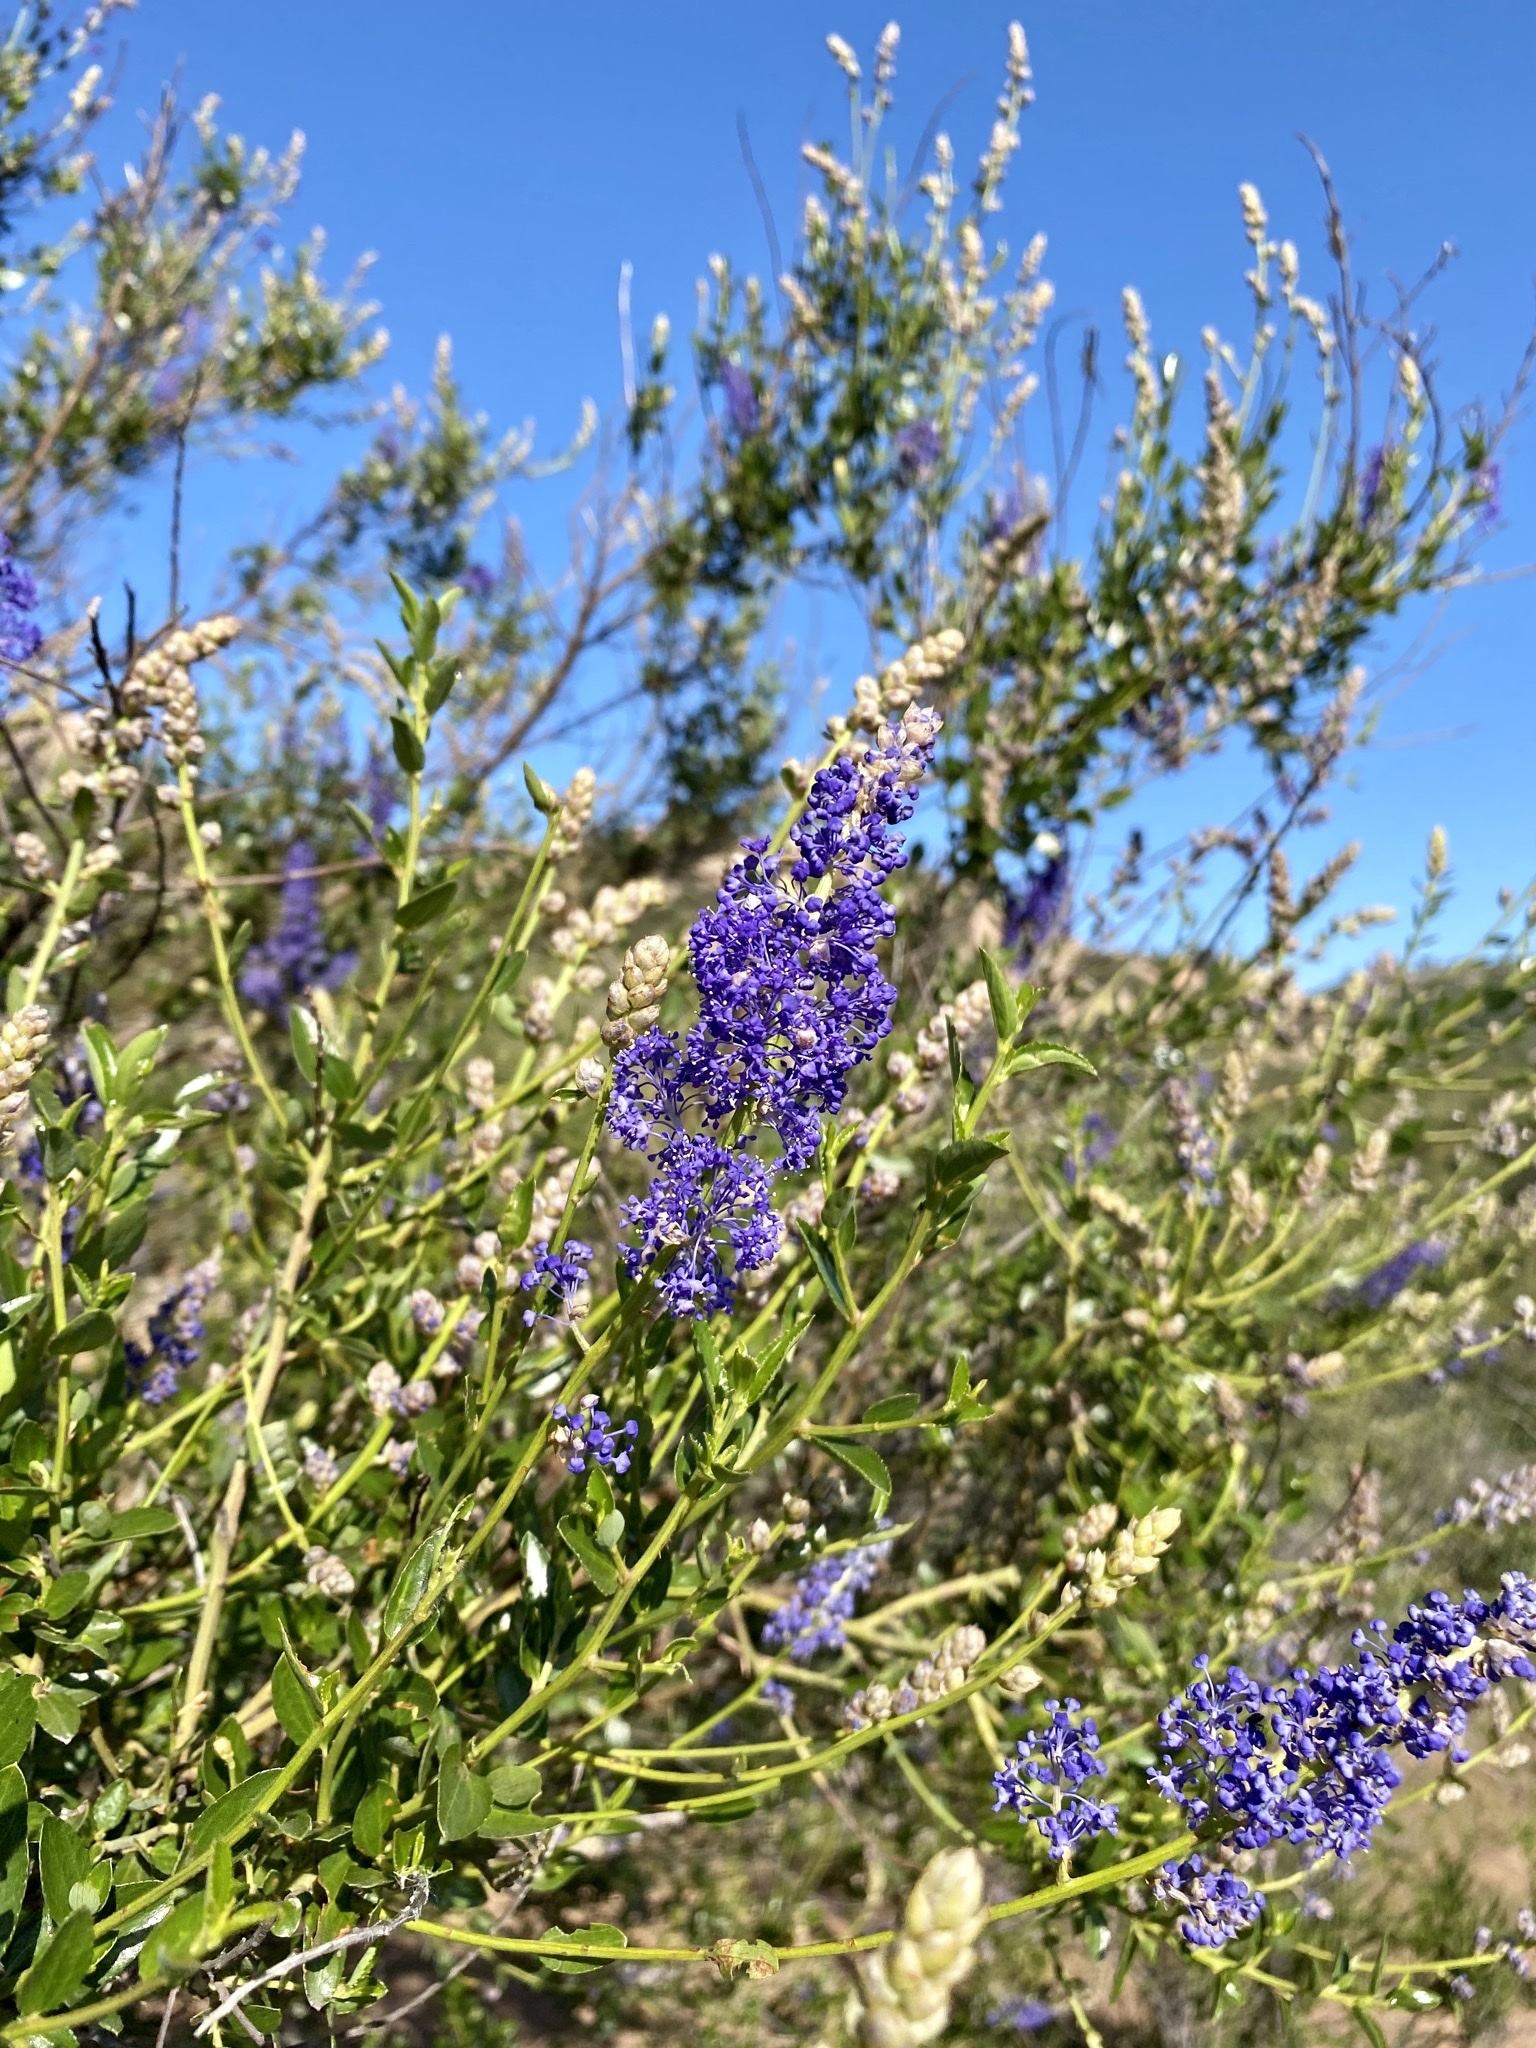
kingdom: Plantae
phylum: Tracheophyta
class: Magnoliopsida
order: Rosales
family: Rhamnaceae
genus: Ceanothus
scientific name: Ceanothus cyaneus
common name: Lakeside ceanothus
